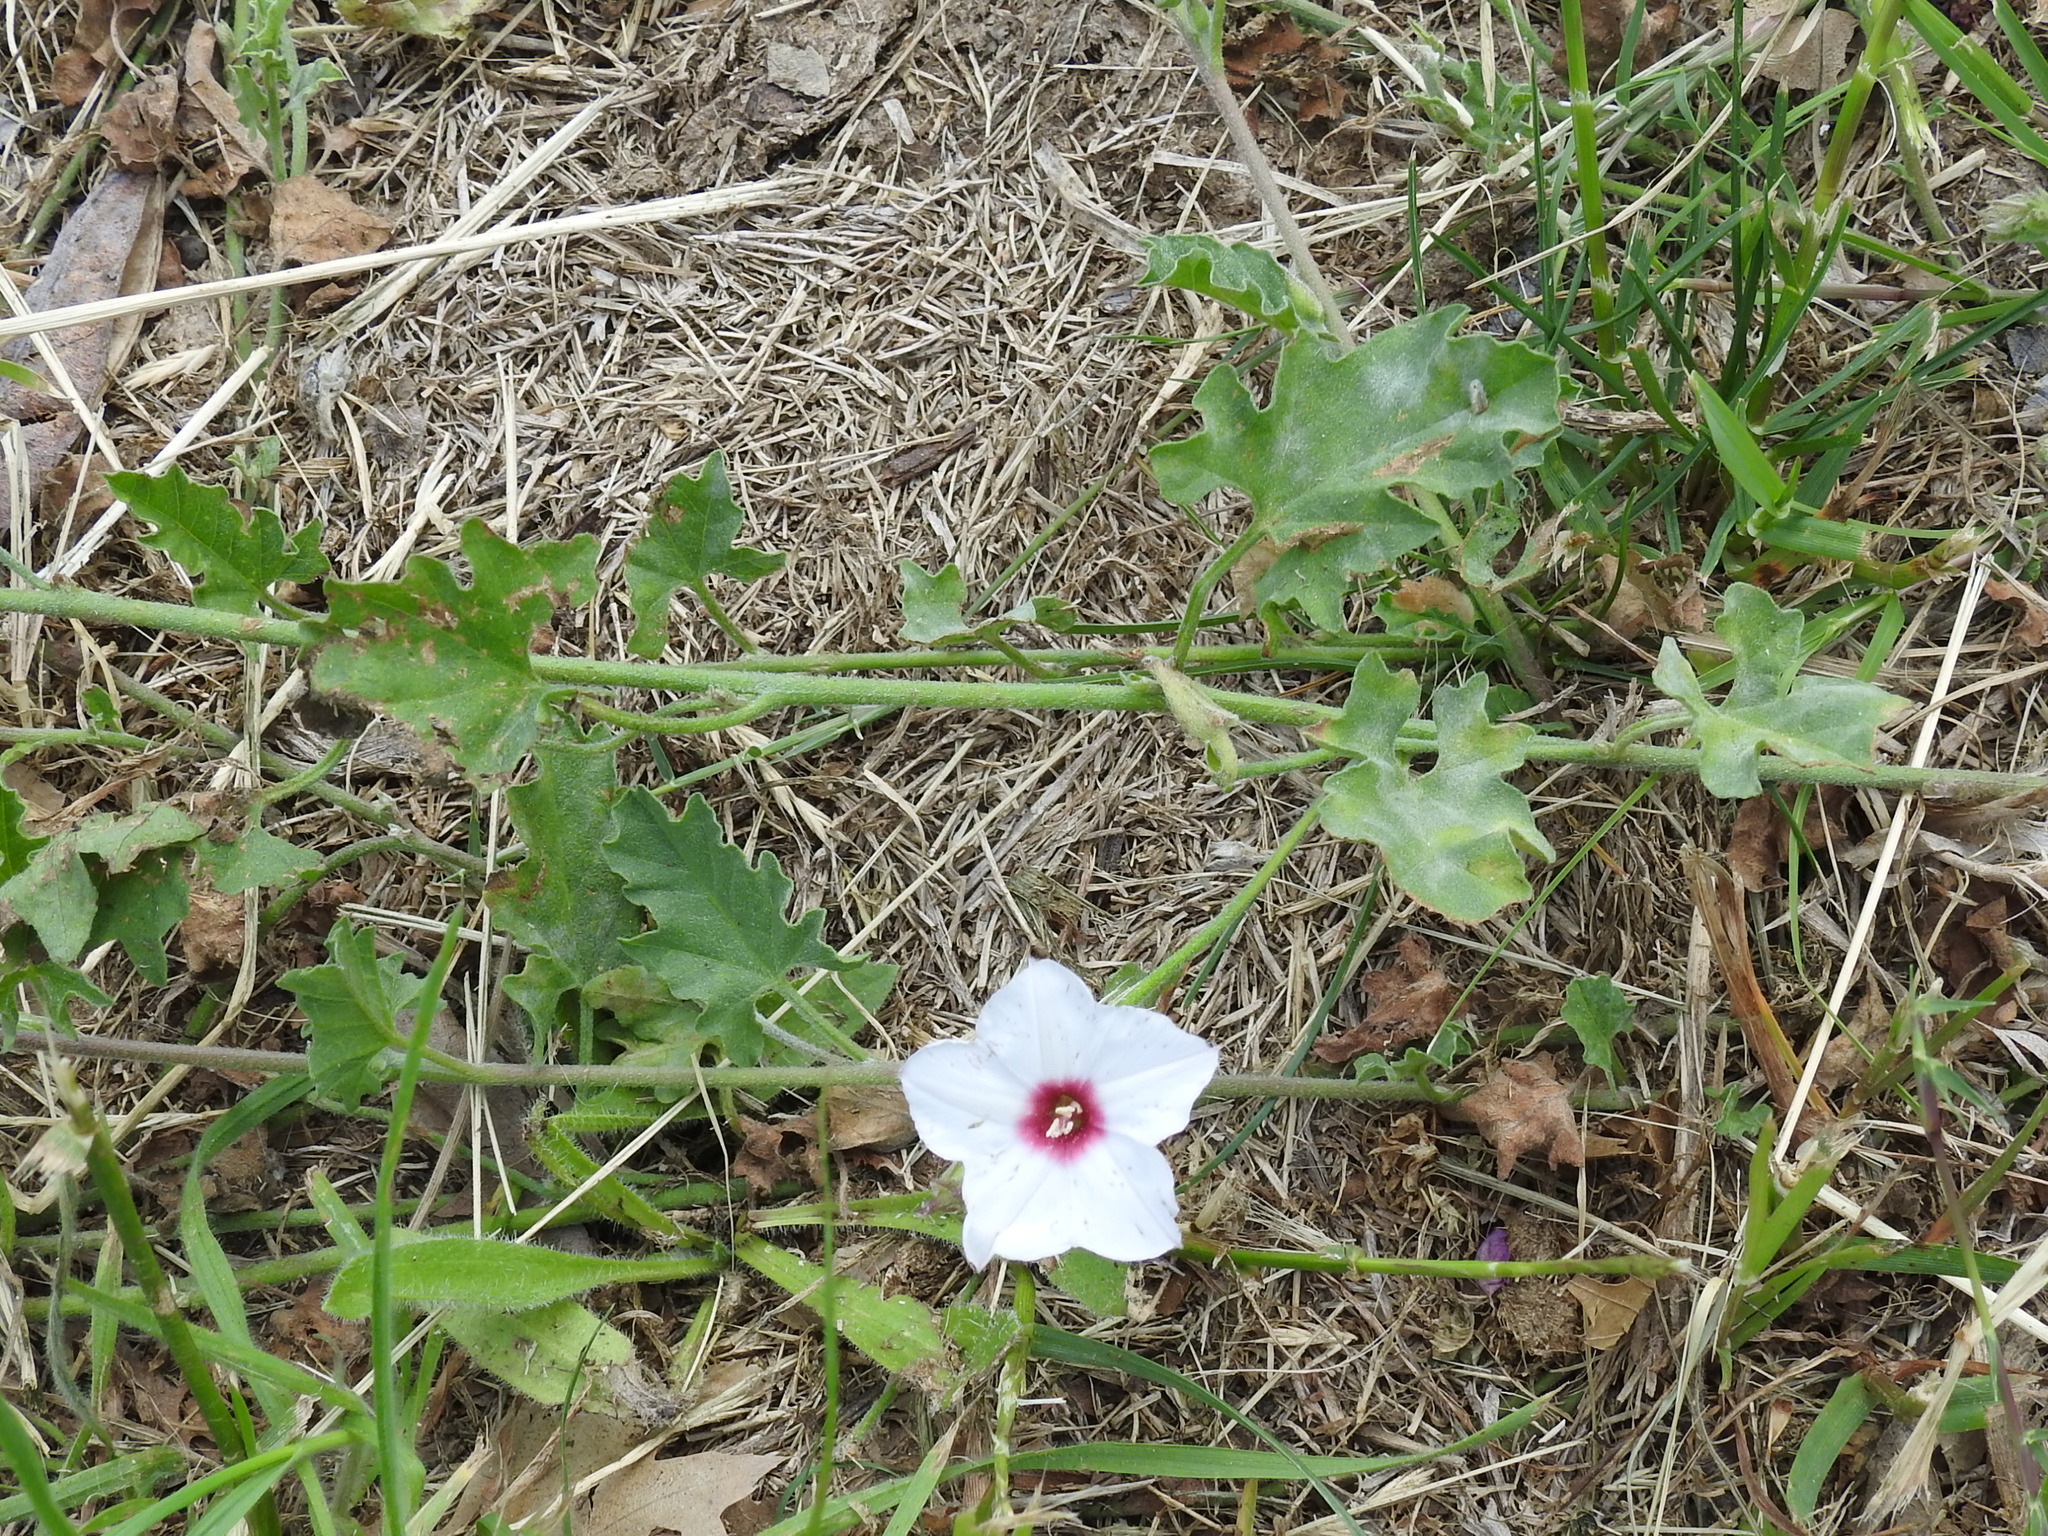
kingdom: Plantae
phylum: Tracheophyta
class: Magnoliopsida
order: Solanales
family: Convolvulaceae
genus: Convolvulus
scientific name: Convolvulus equitans
